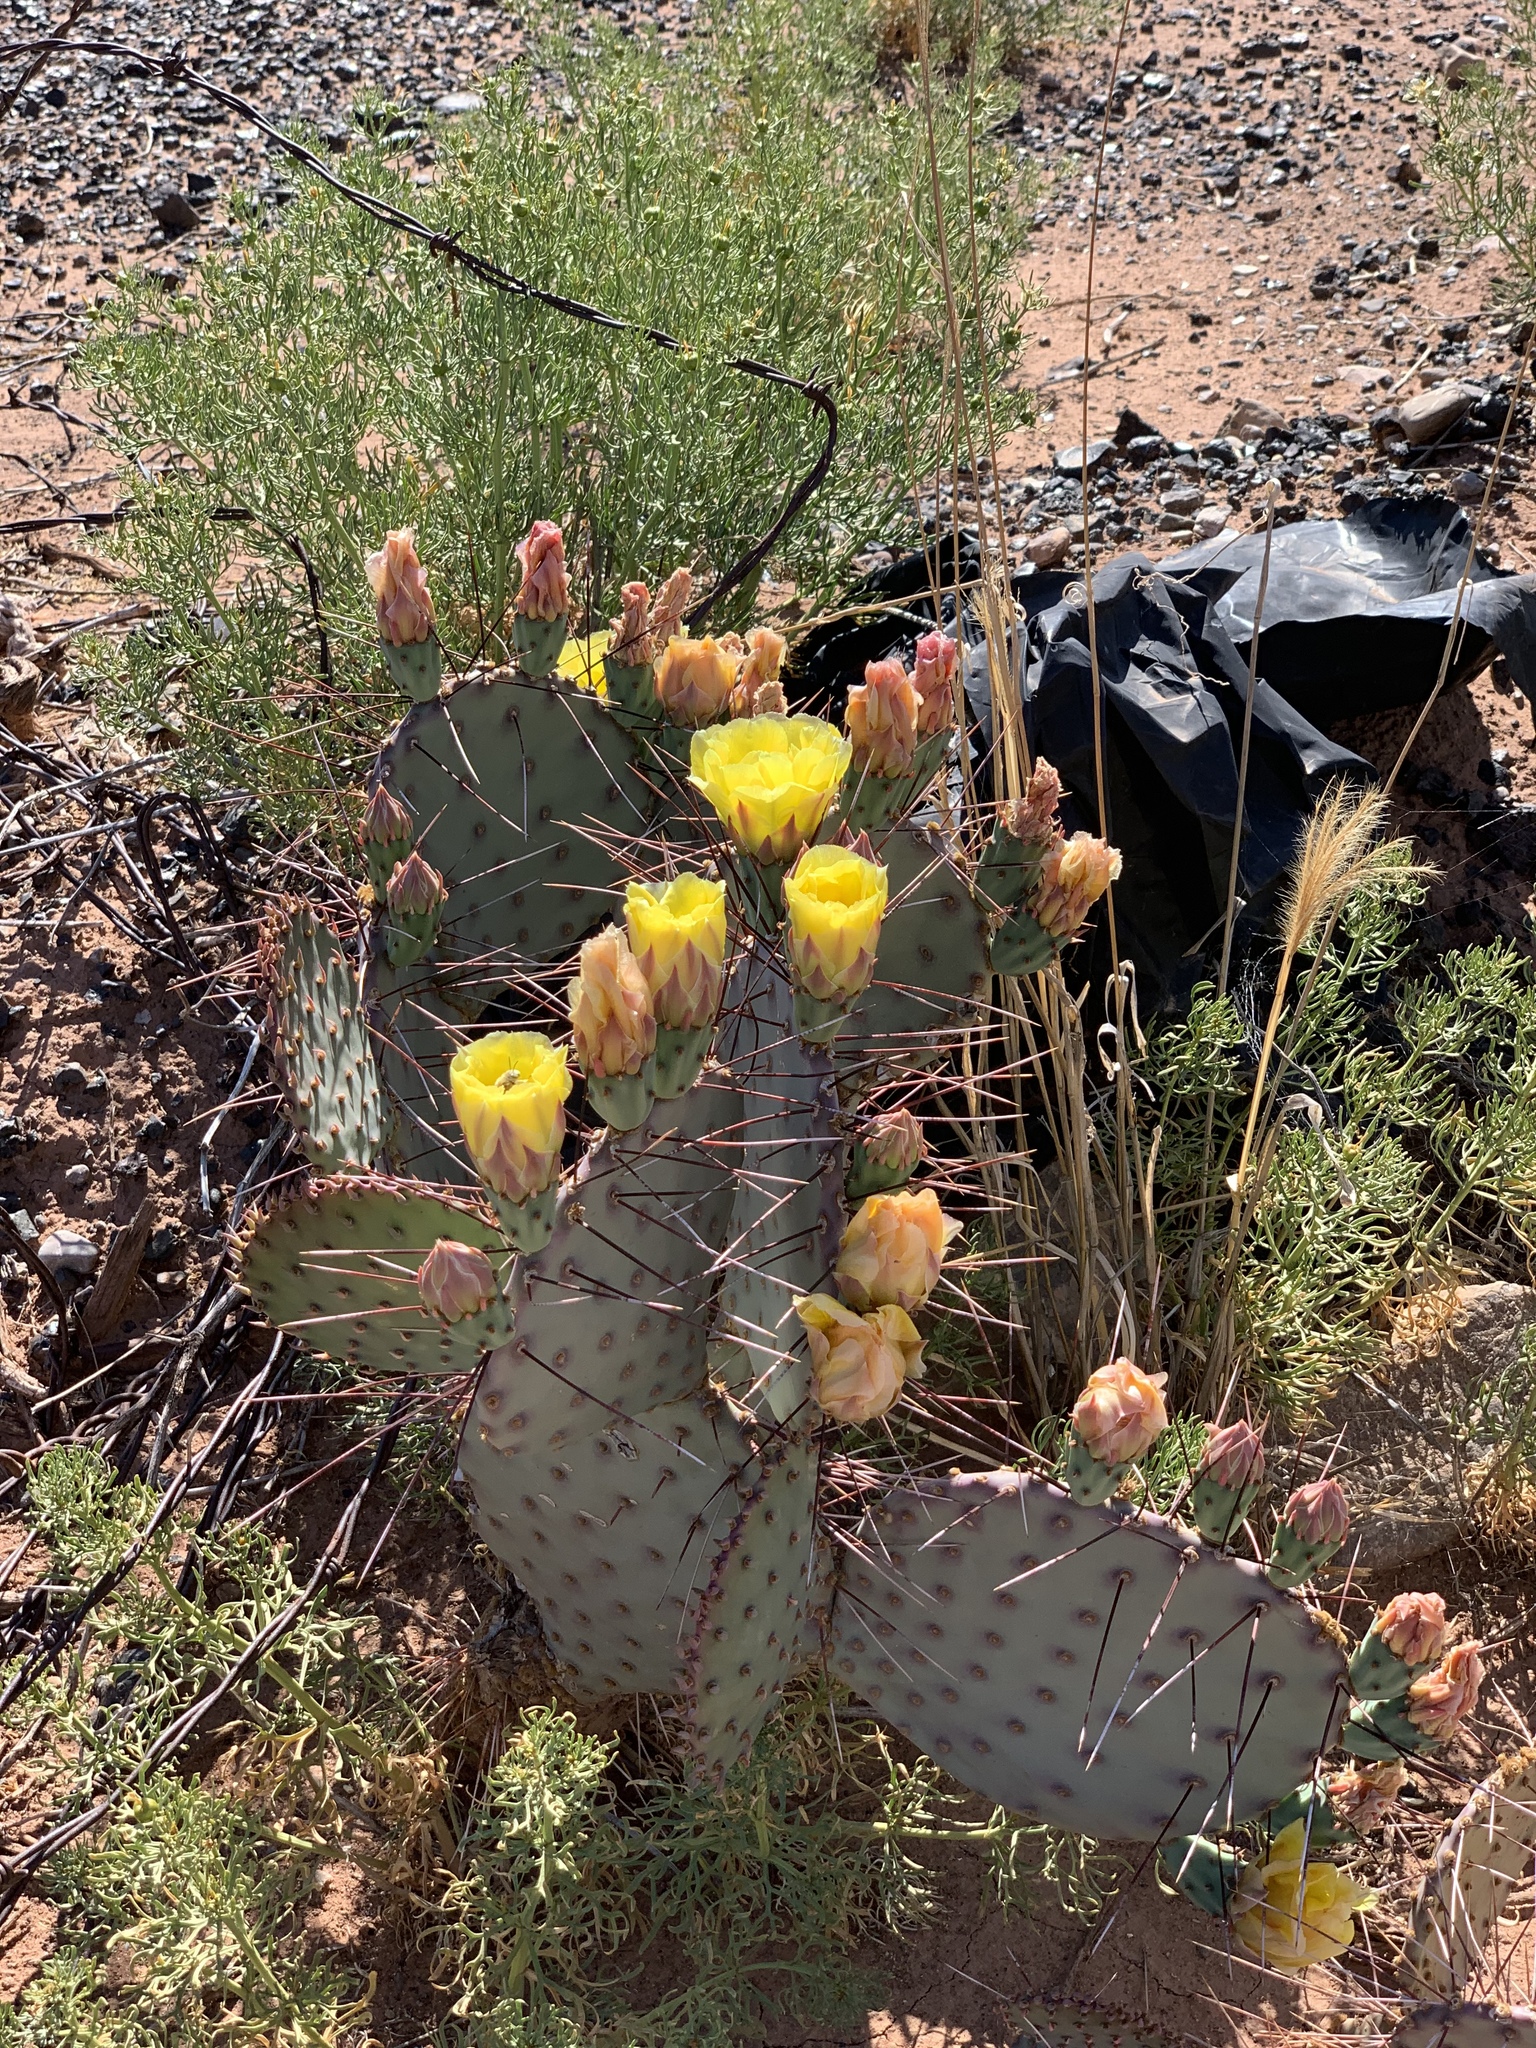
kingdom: Plantae
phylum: Tracheophyta
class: Magnoliopsida
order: Caryophyllales
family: Cactaceae
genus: Opuntia
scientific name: Opuntia macrocentra
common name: Purple prickly-pear
